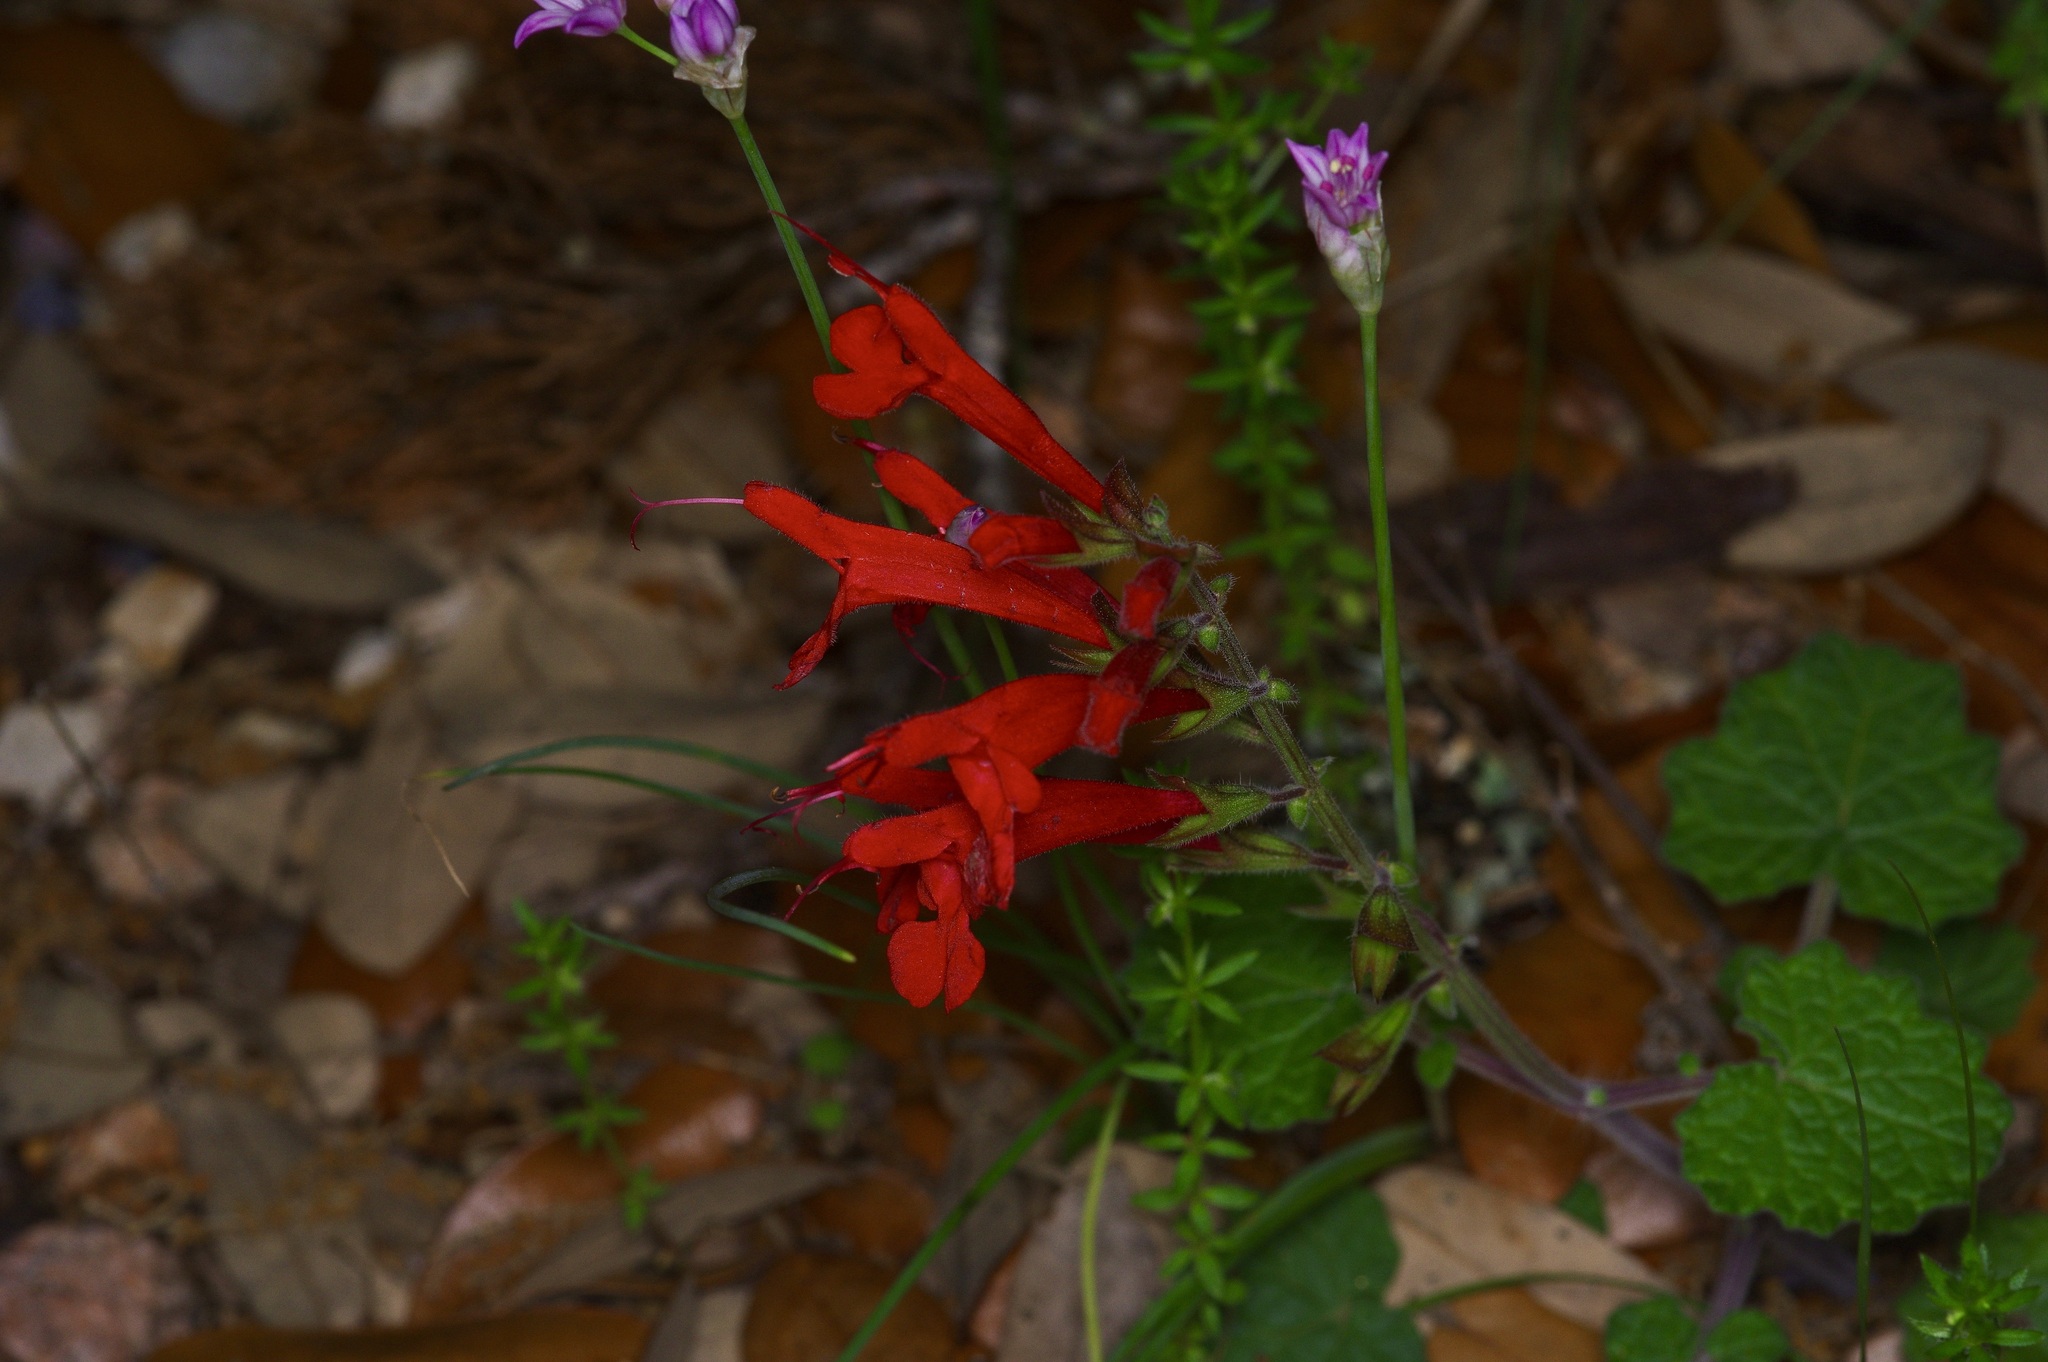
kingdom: Plantae
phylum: Tracheophyta
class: Magnoliopsida
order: Lamiales
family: Lamiaceae
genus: Salvia
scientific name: Salvia roemeriana
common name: Cedar sage
